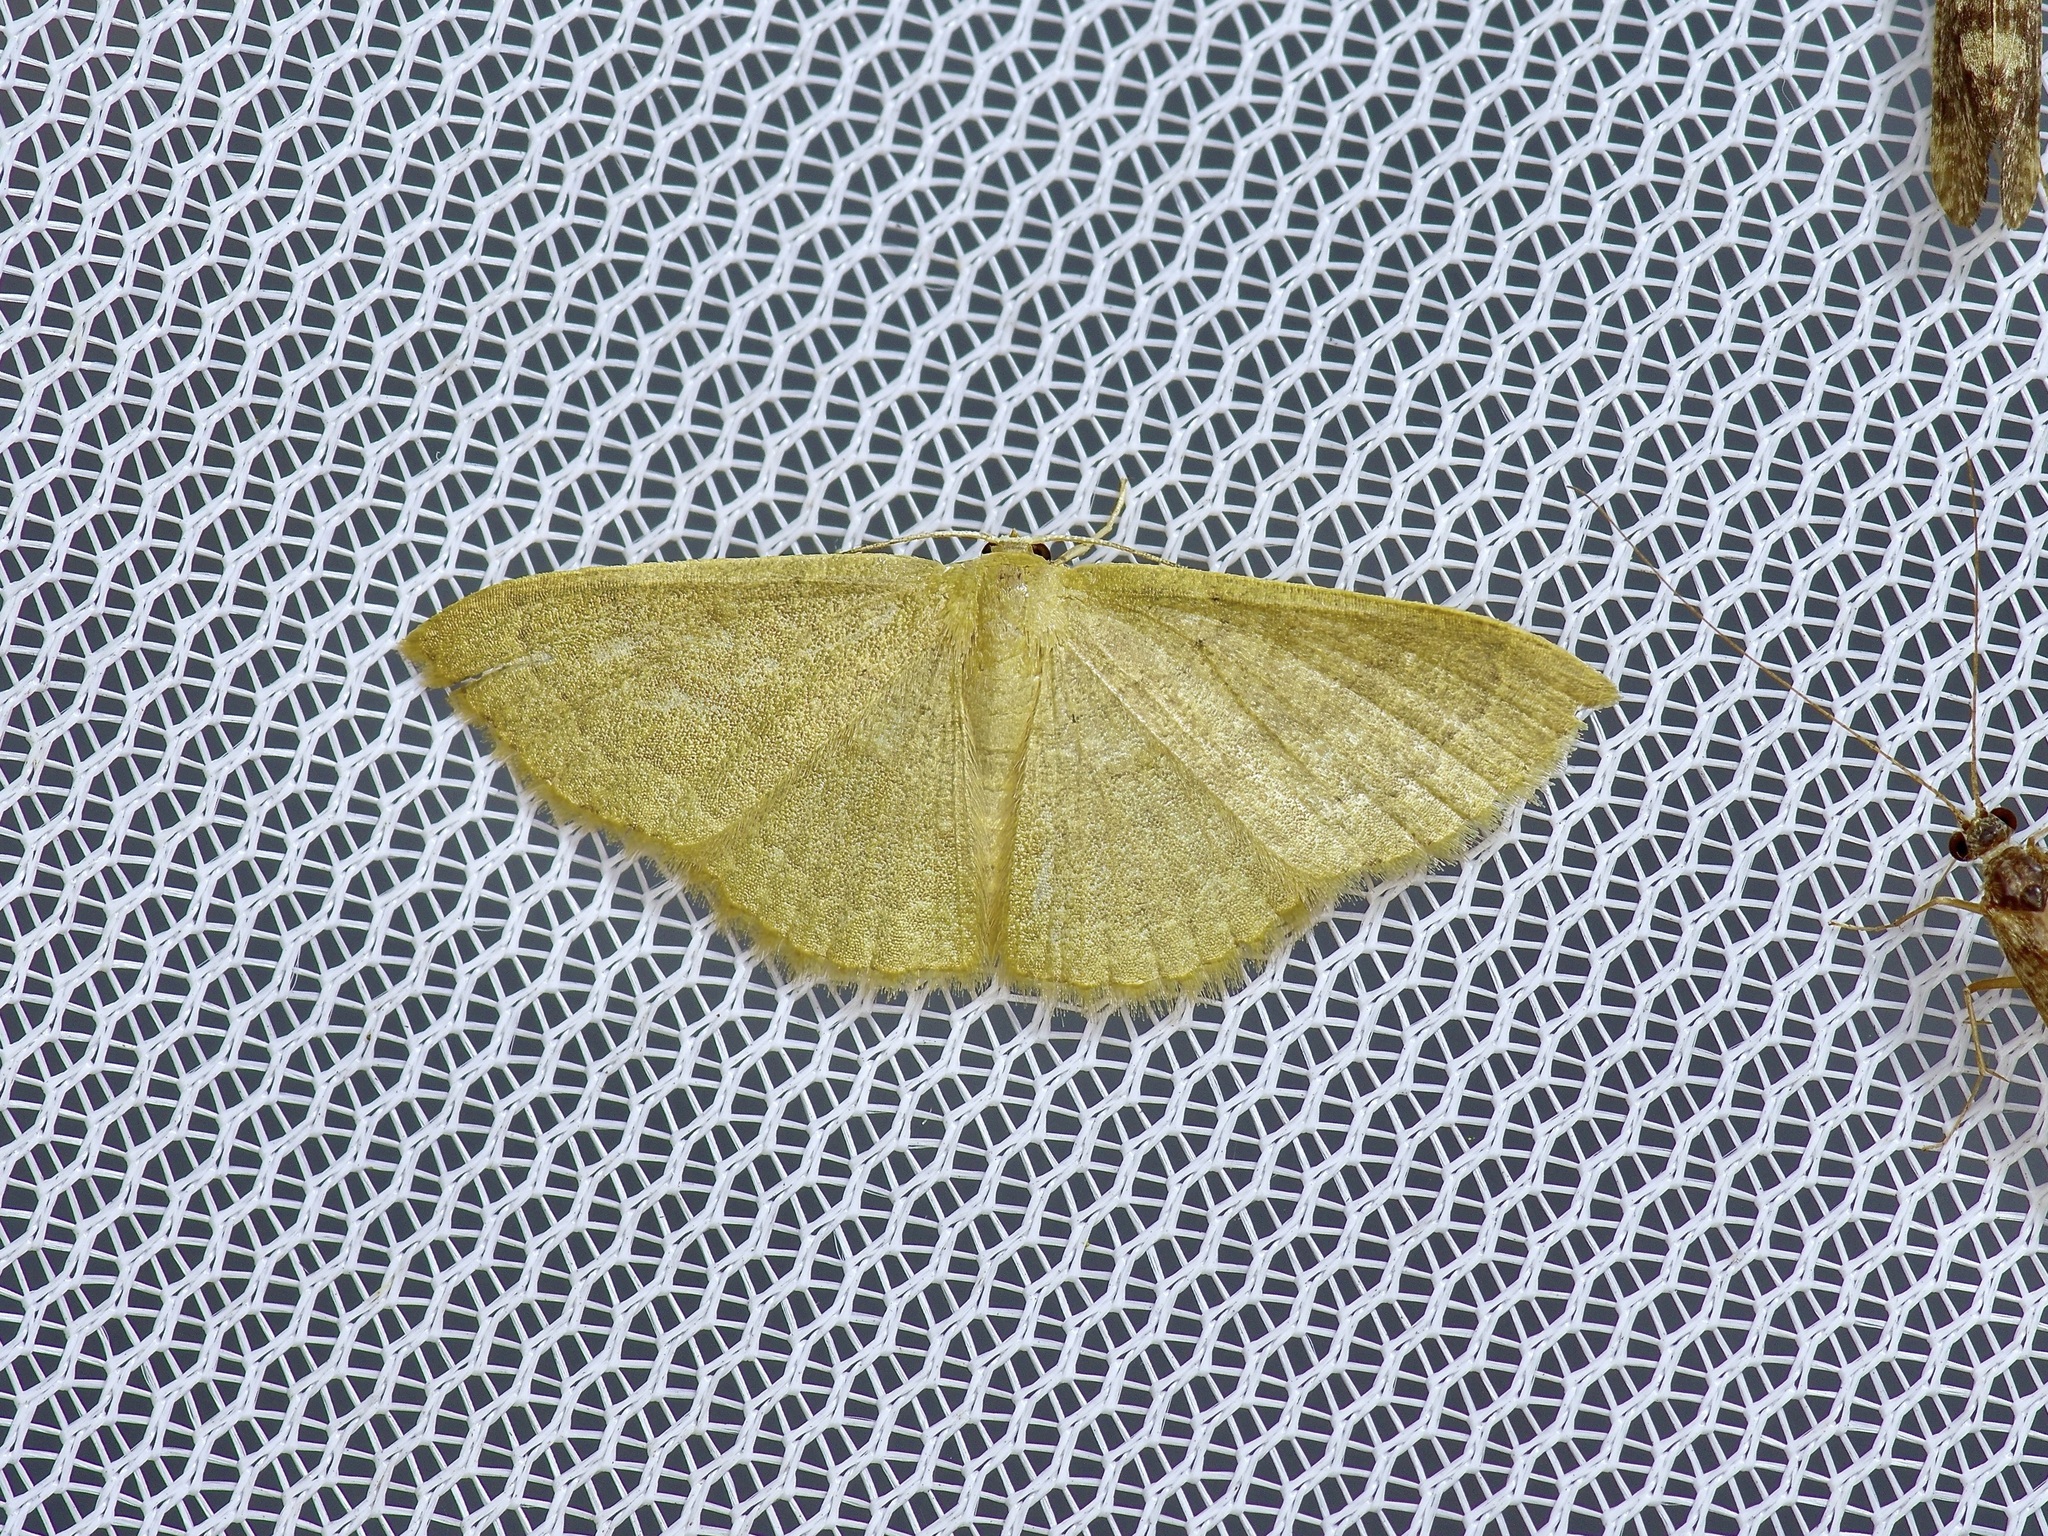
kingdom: Animalia
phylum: Arthropoda
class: Insecta
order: Lepidoptera
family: Geometridae
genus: Pleuroprucha
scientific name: Pleuroprucha insulsaria
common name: Common tan wave
